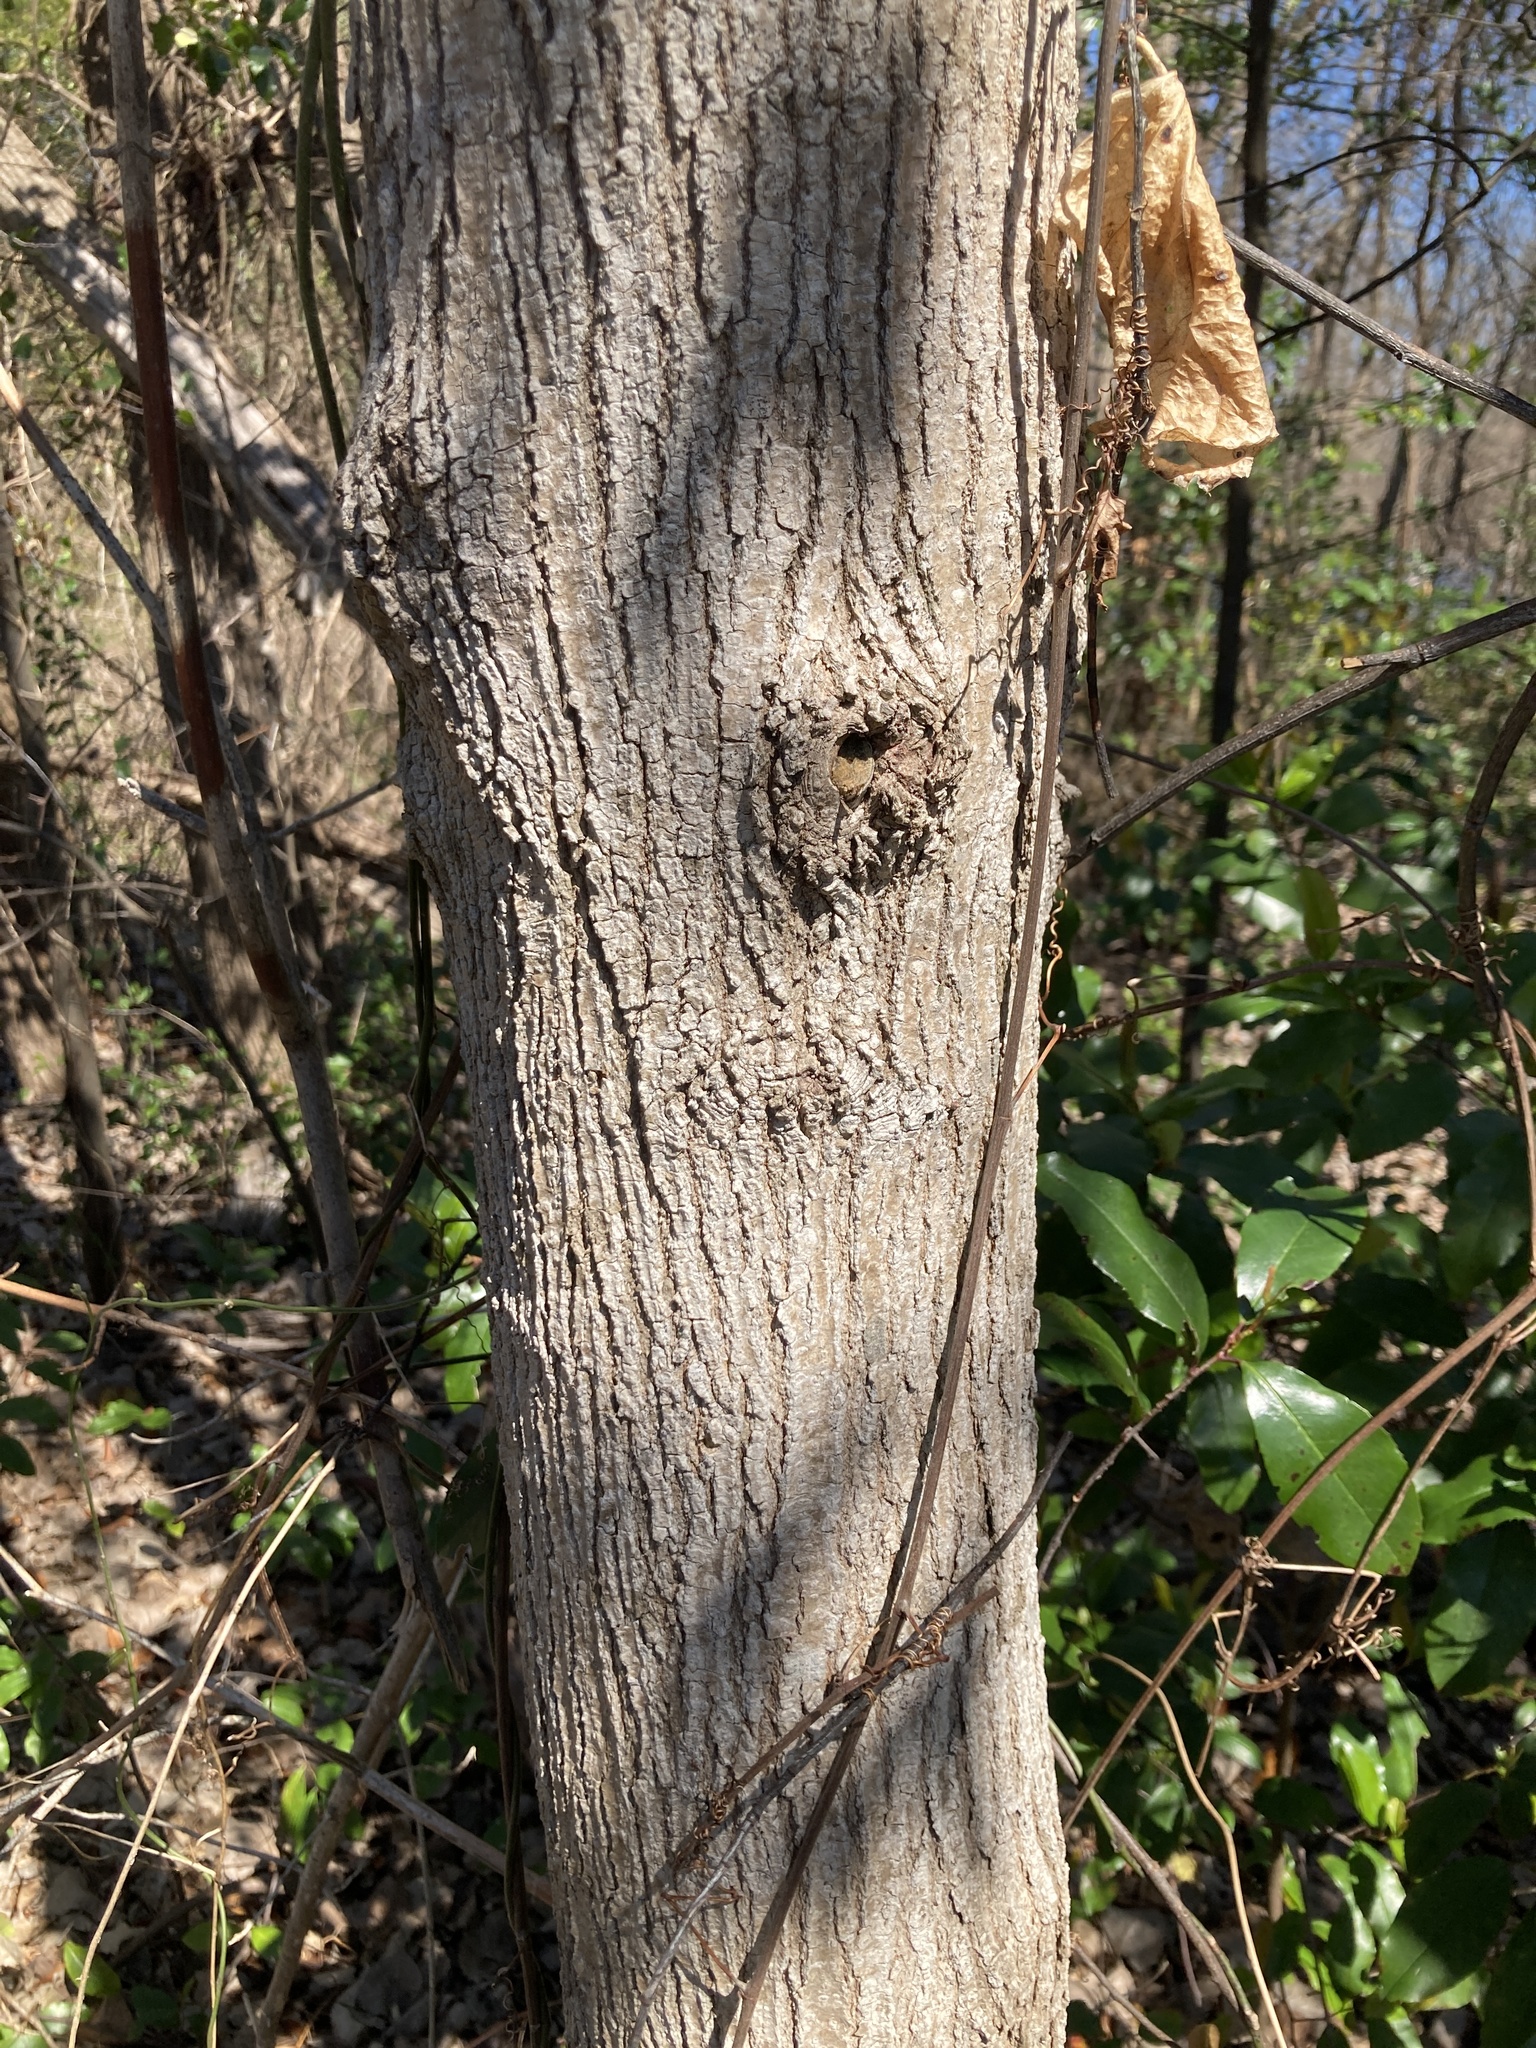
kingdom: Plantae
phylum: Tracheophyta
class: Magnoliopsida
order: Sapindales
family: Sapindaceae
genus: Acer
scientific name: Acer negundo
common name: Ashleaf maple
